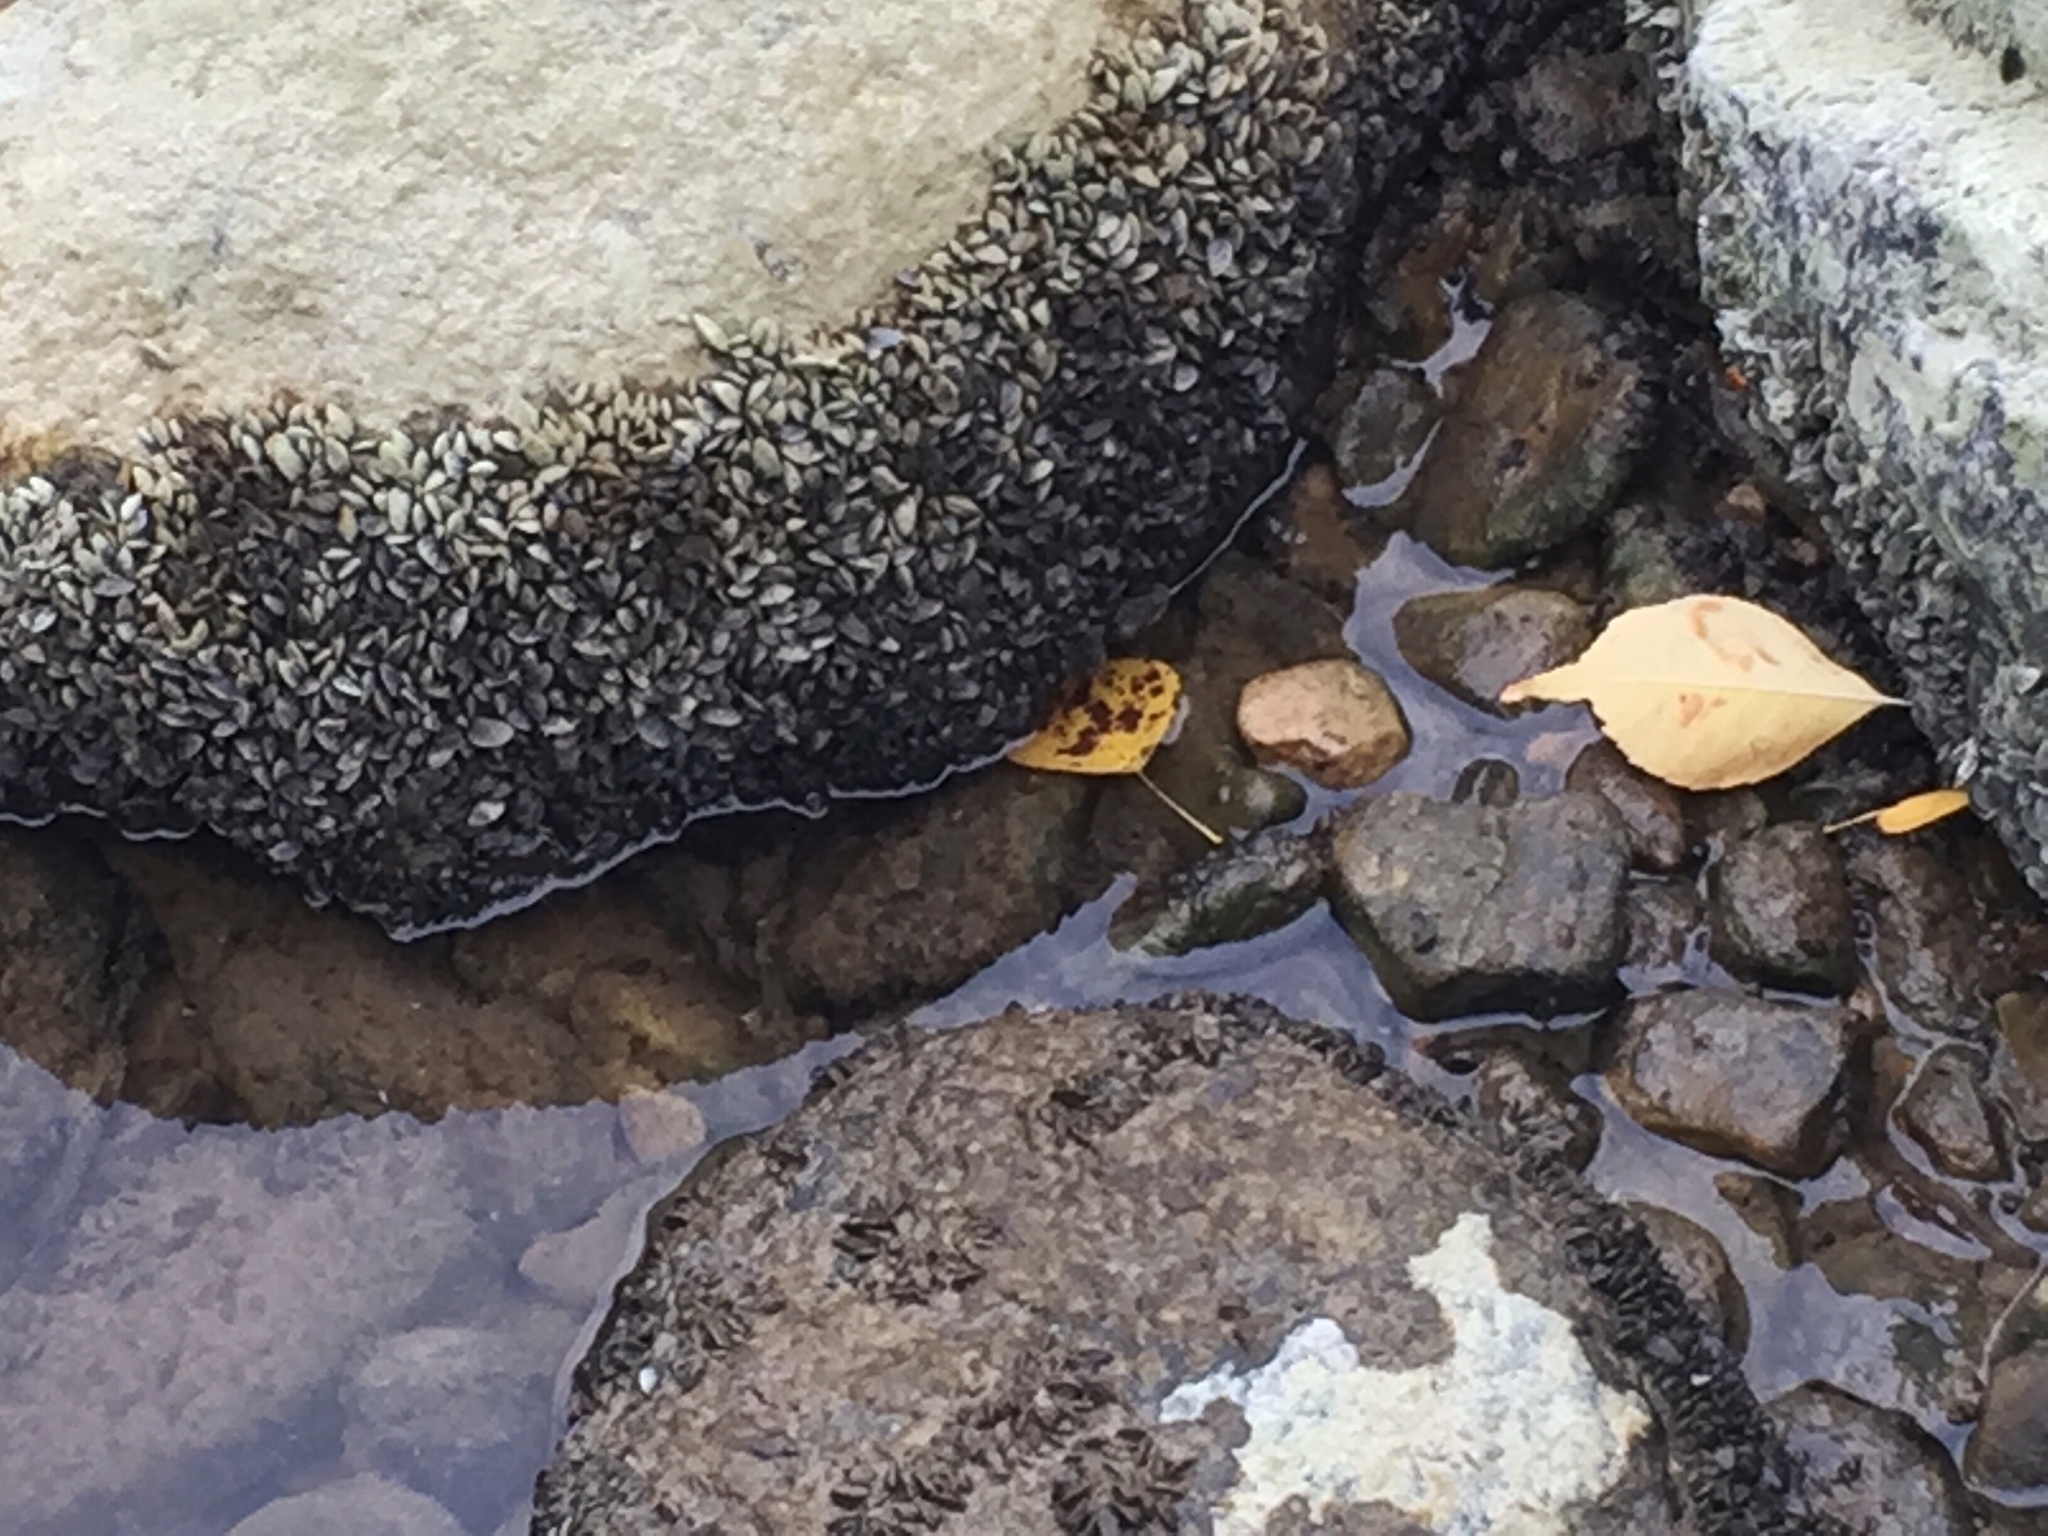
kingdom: Animalia
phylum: Mollusca
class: Bivalvia
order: Myida
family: Dreissenidae
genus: Dreissena
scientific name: Dreissena polymorpha
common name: Zebra mussel
